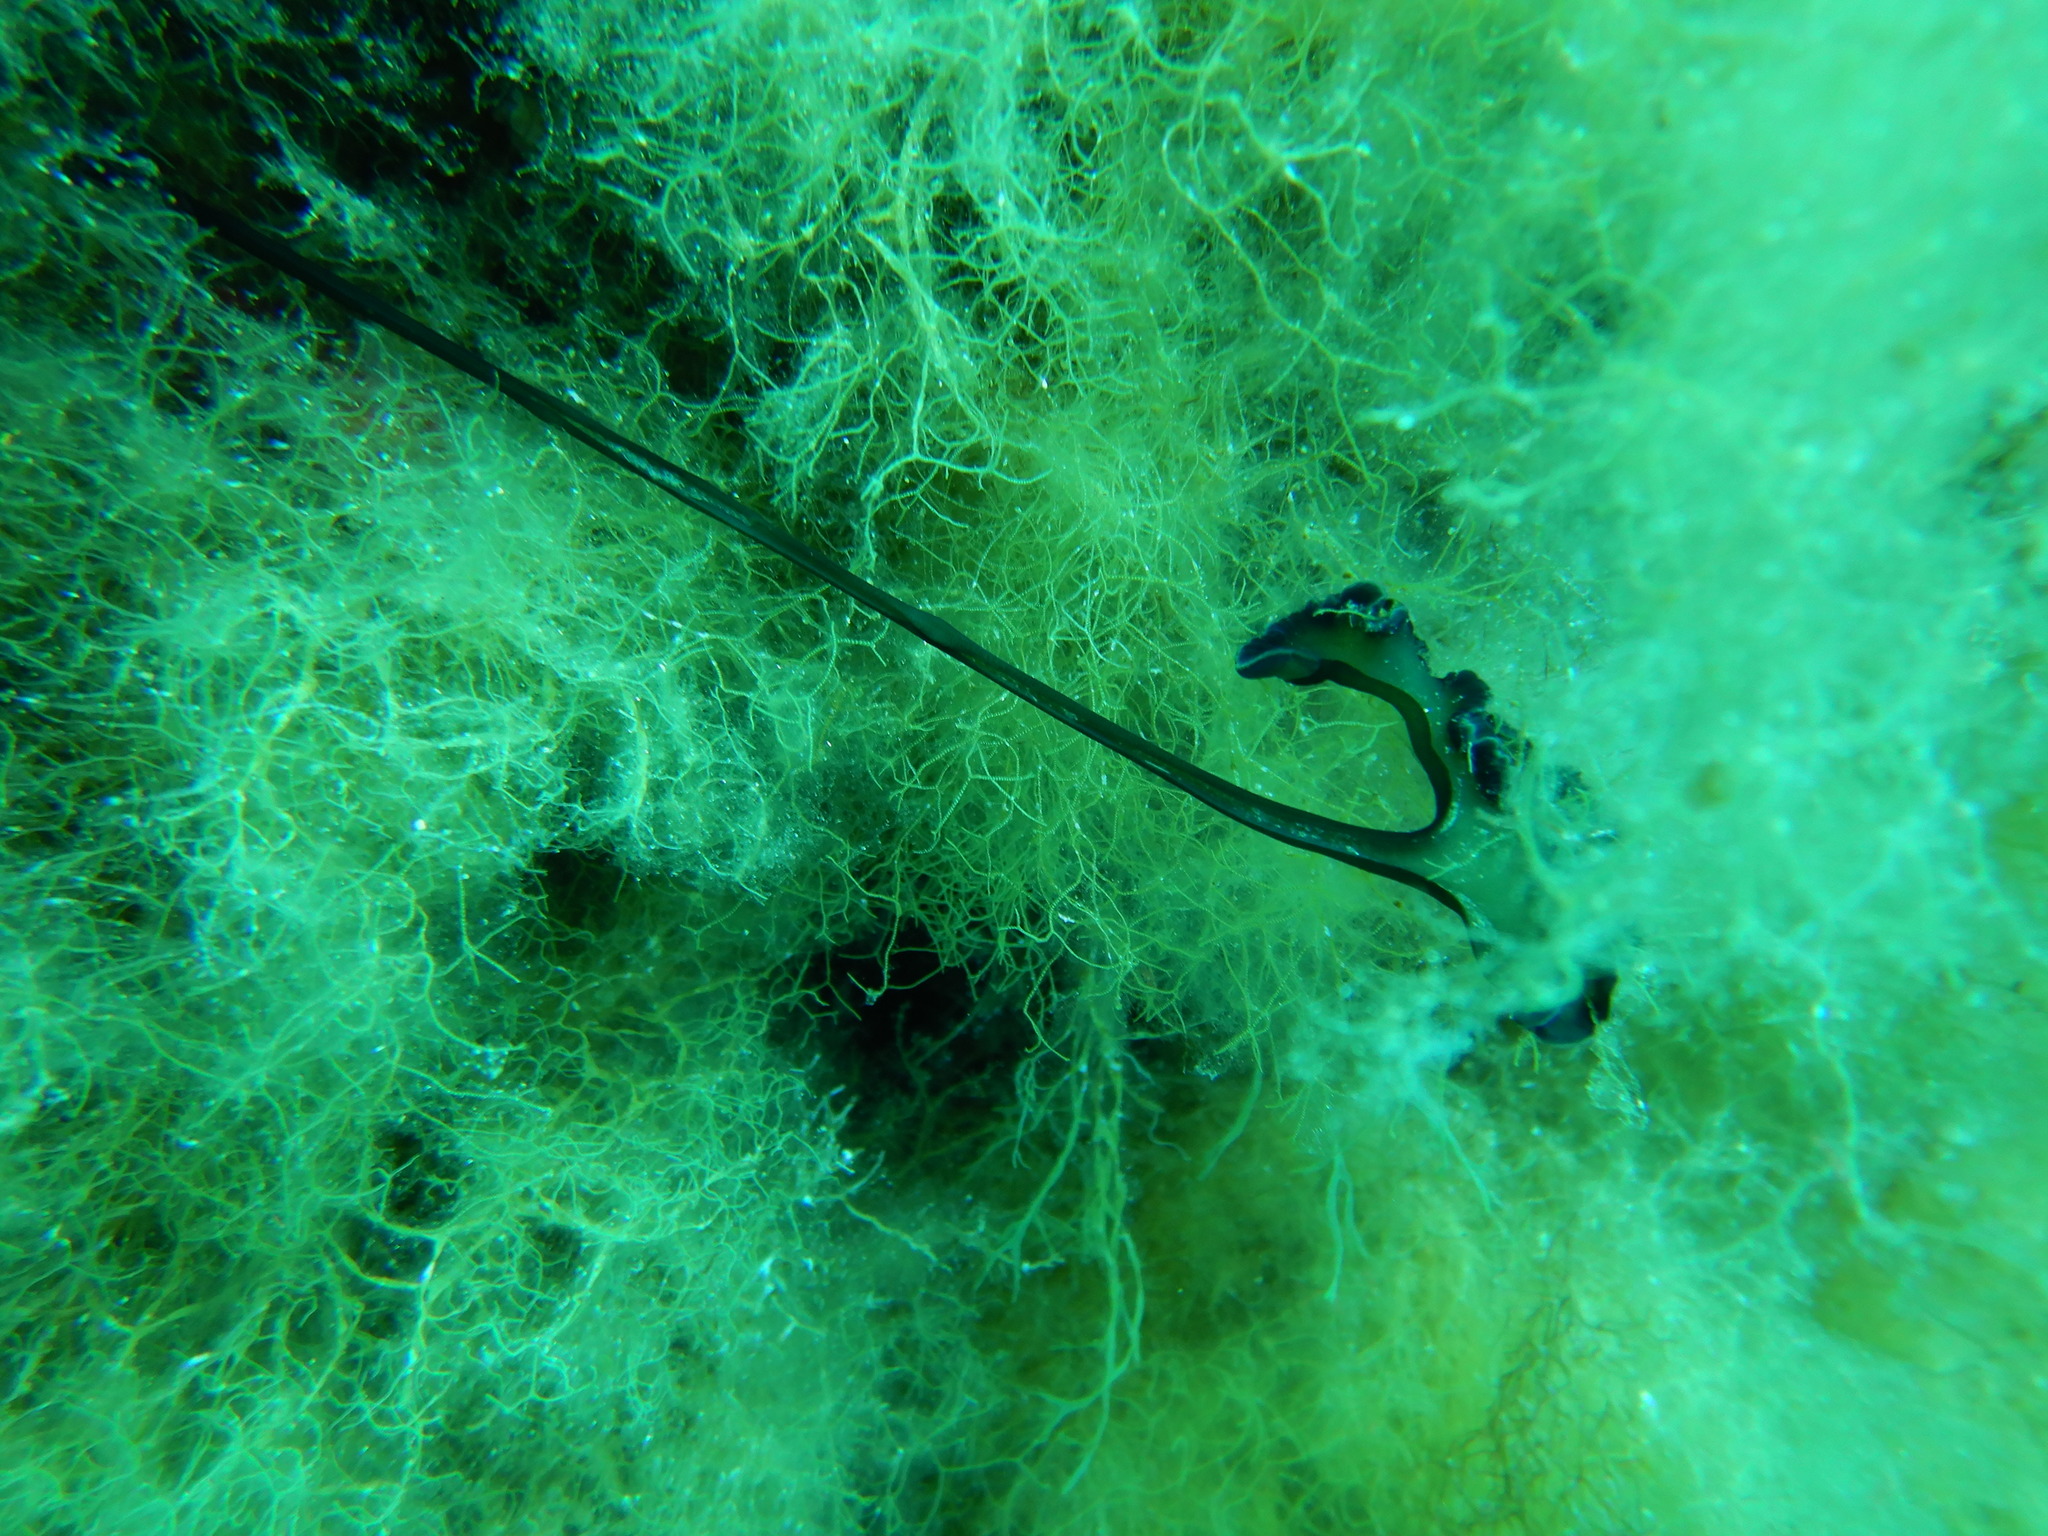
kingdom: Animalia
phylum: Annelida
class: Polychaeta
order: Echiuroidea
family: Bonelliidae
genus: Bonellia
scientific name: Bonellia viridis
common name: Green spoon worm
